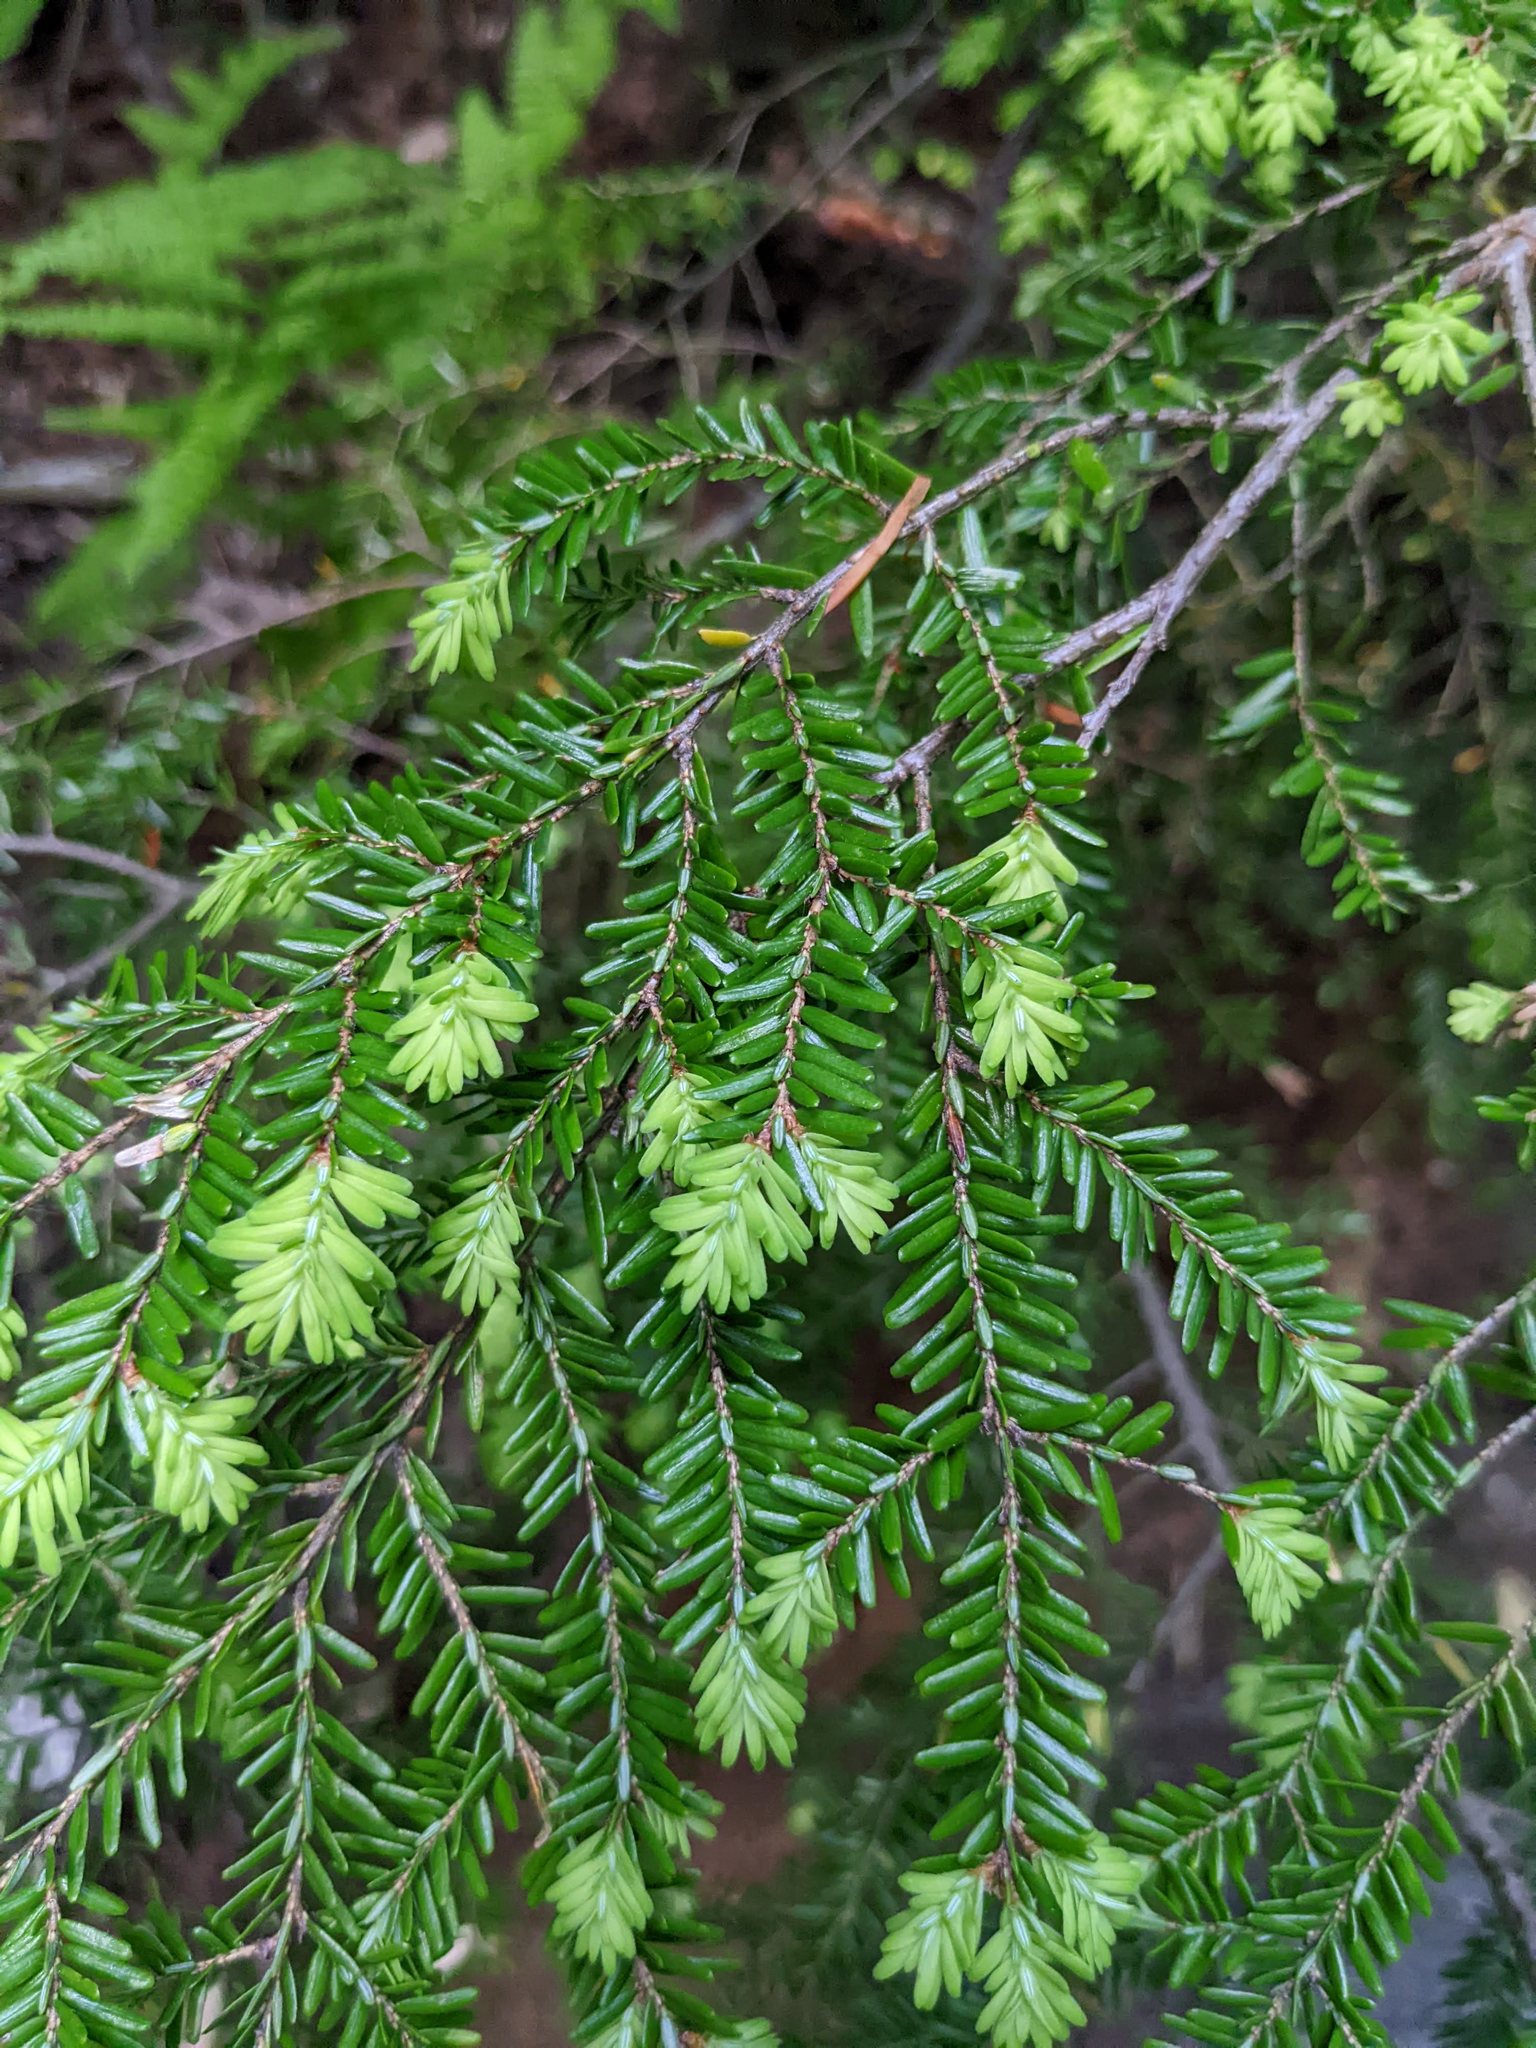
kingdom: Plantae
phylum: Tracheophyta
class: Pinopsida
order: Pinales
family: Pinaceae
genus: Tsuga
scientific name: Tsuga canadensis
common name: Eastern hemlock
